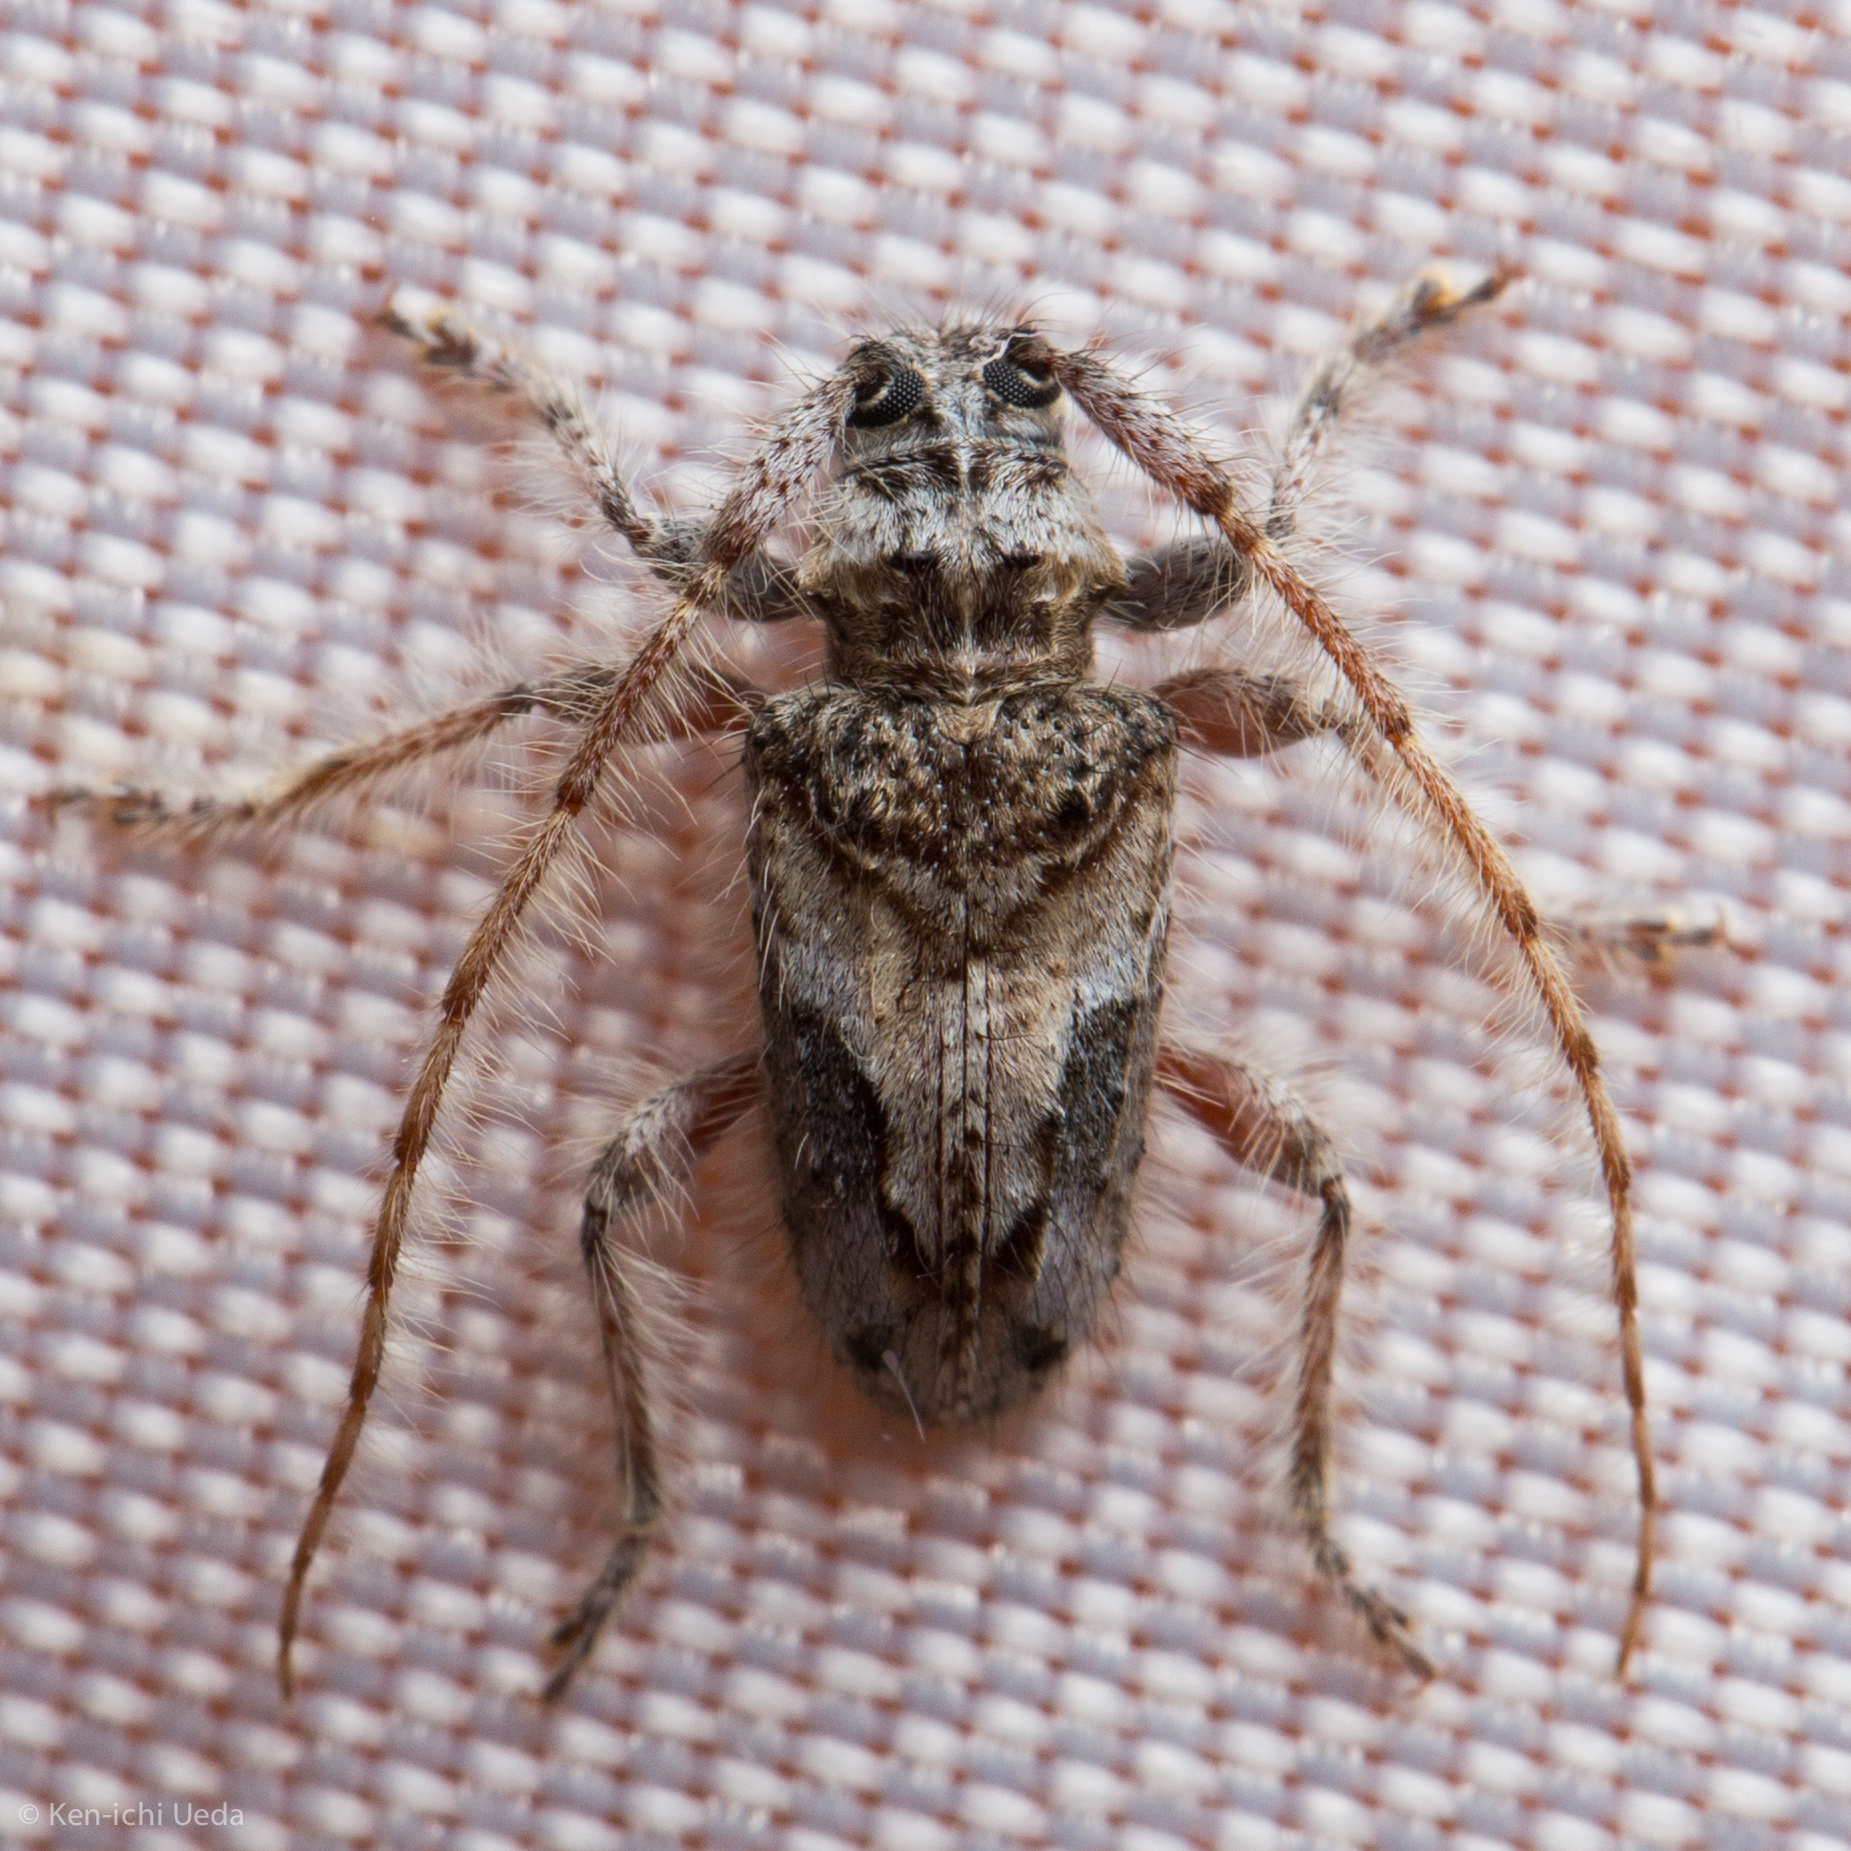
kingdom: Animalia
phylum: Arthropoda
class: Insecta
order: Coleoptera
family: Cerambycidae
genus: Poliaenus
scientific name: Poliaenus negundo
